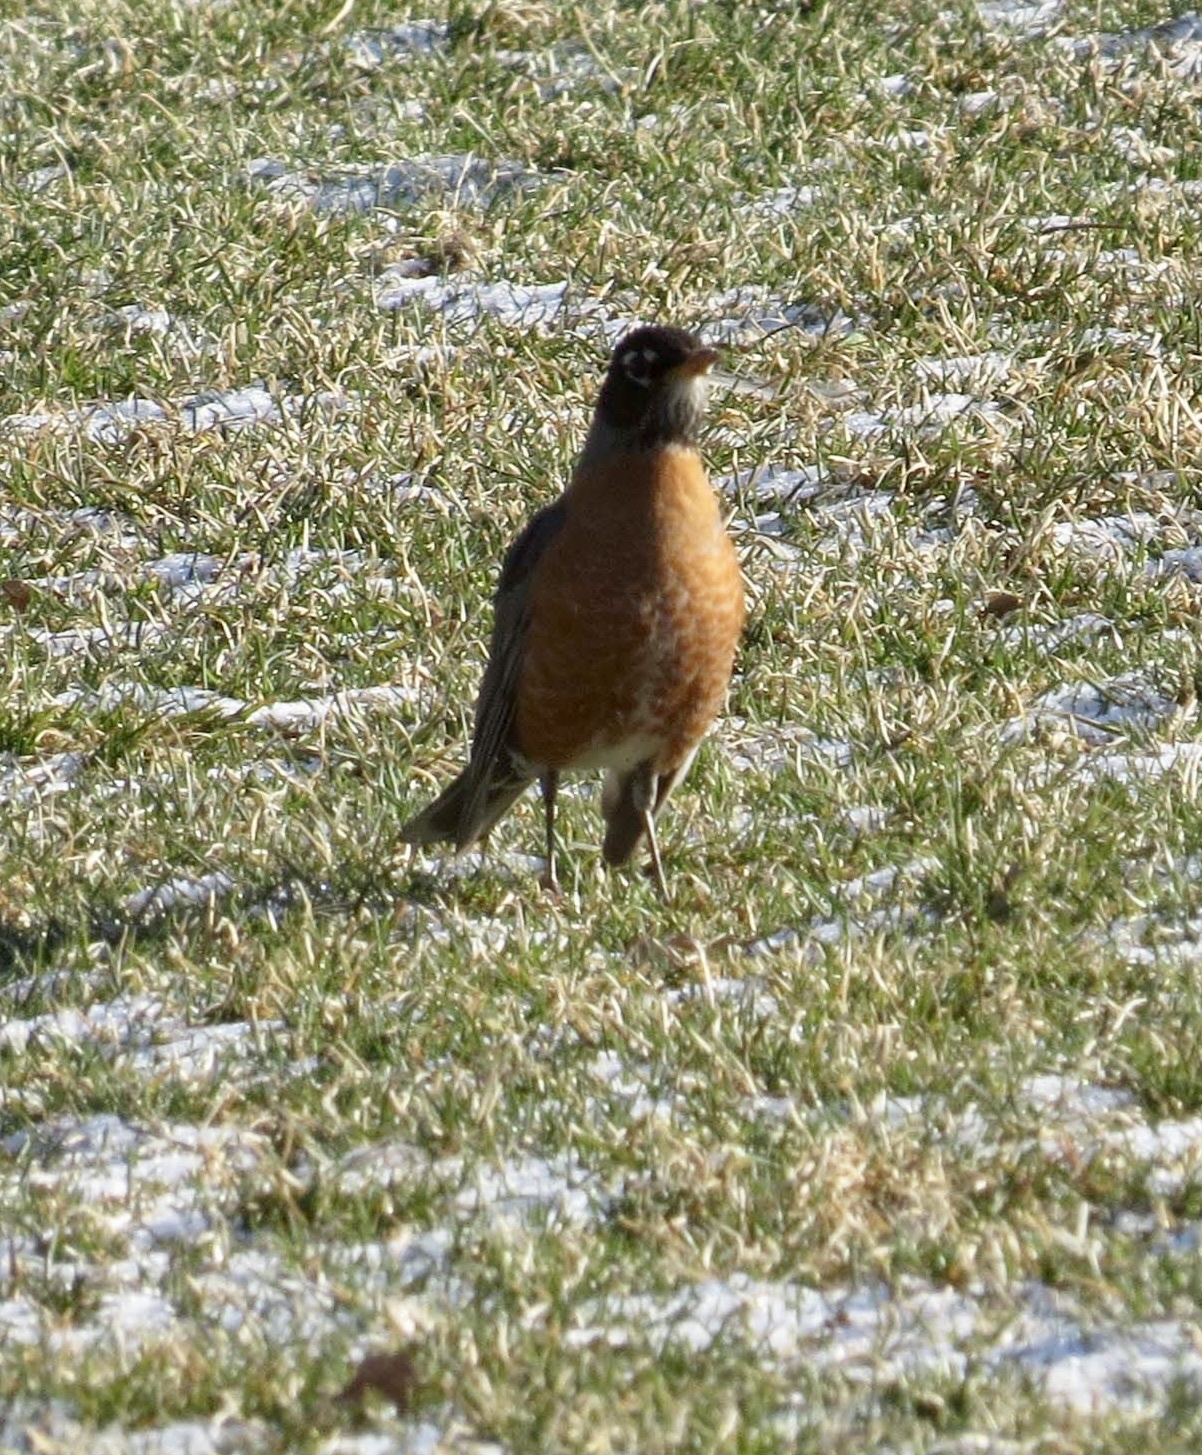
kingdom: Animalia
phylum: Chordata
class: Aves
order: Passeriformes
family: Turdidae
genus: Turdus
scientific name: Turdus migratorius
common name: American robin
